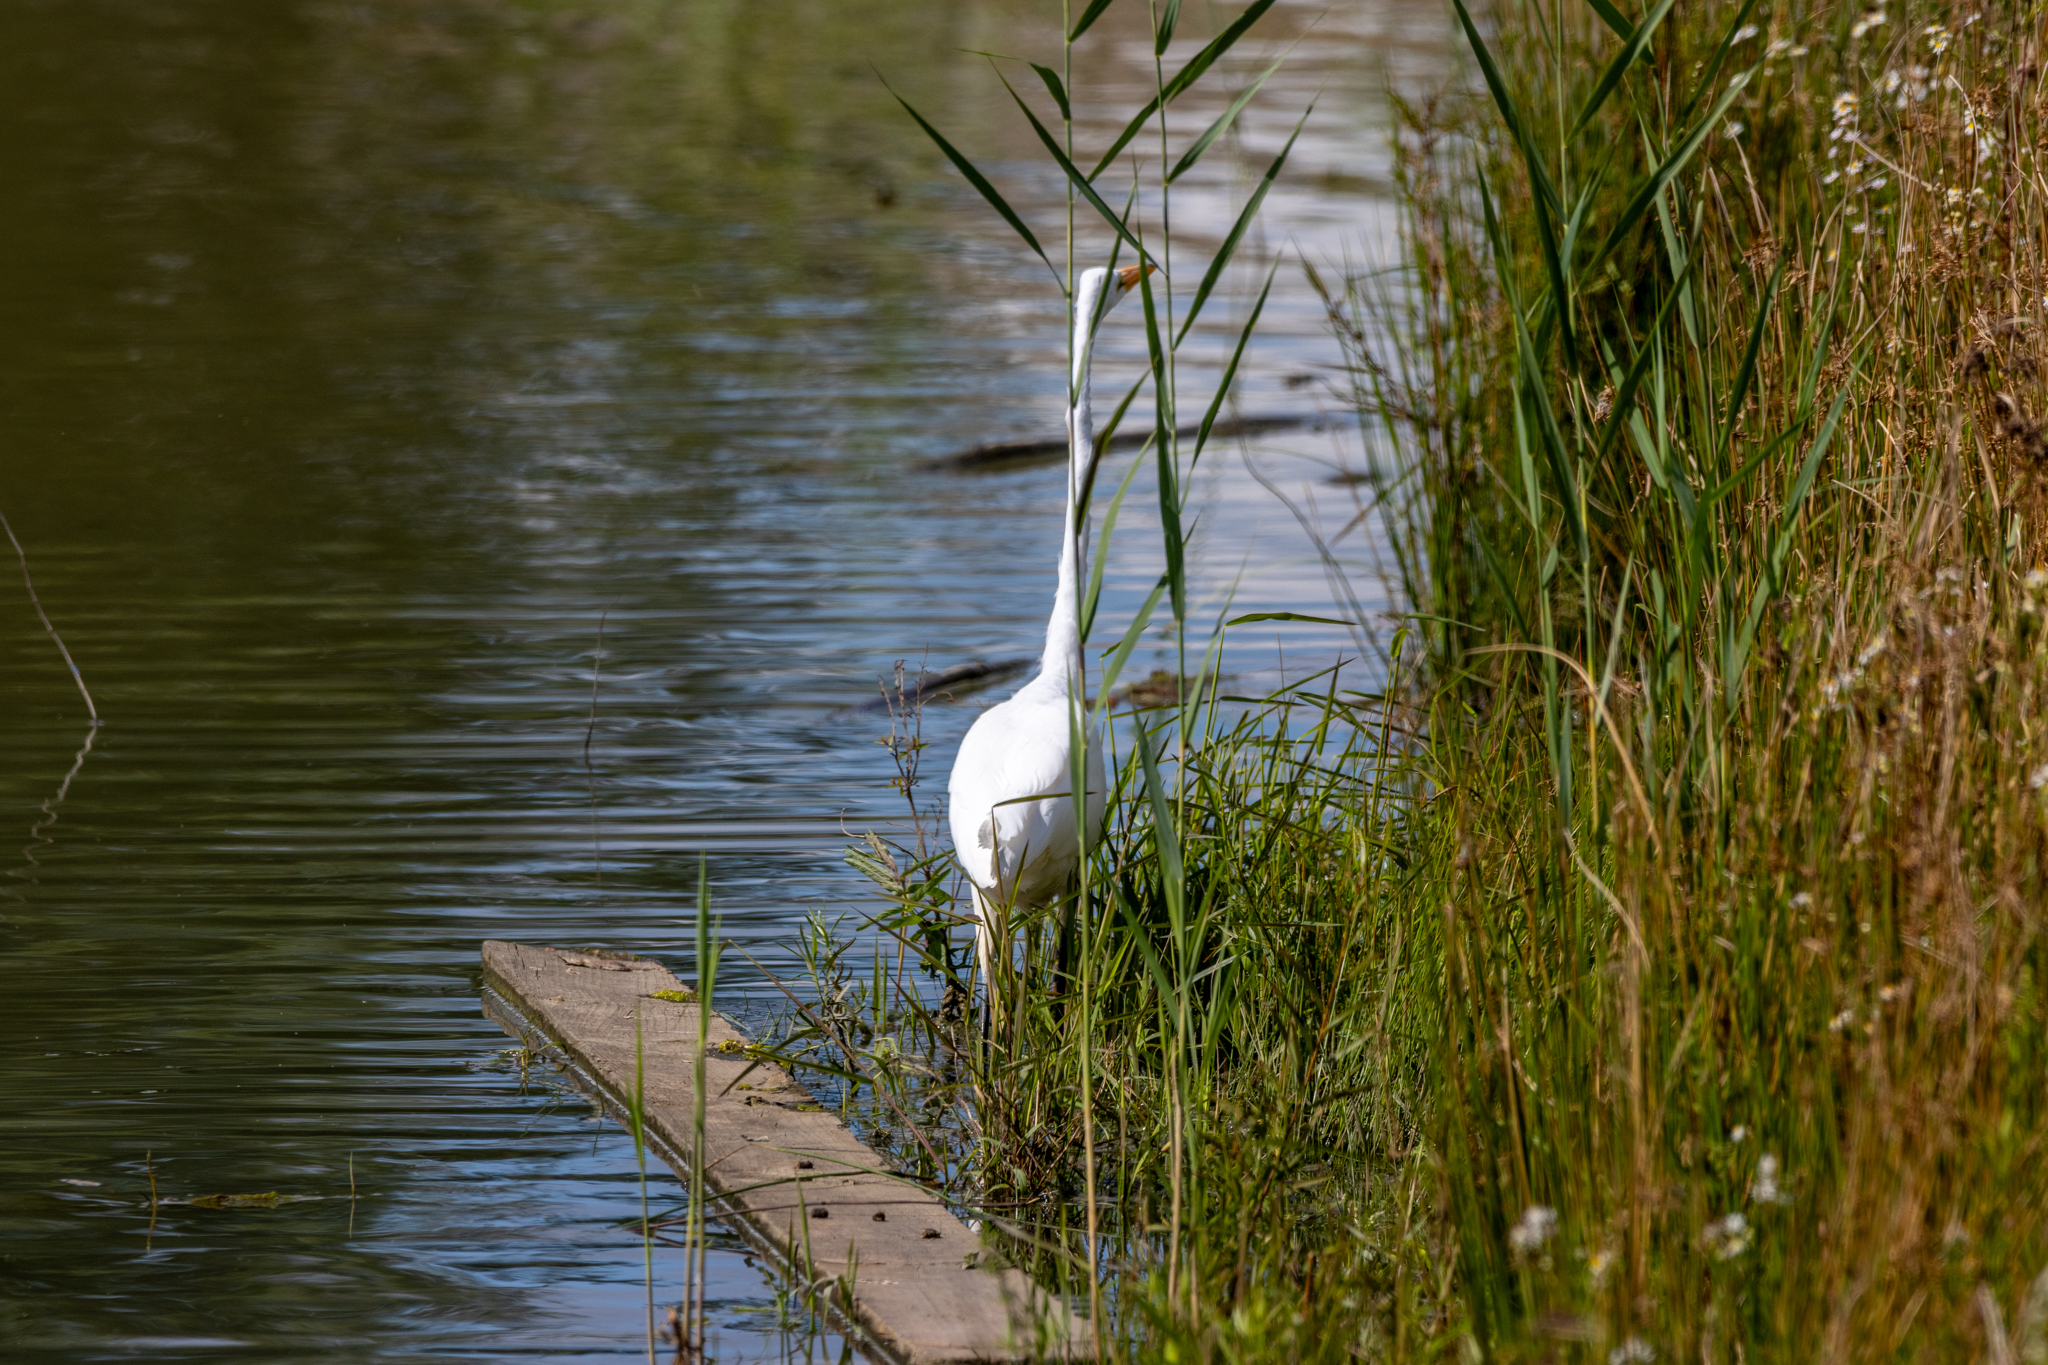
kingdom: Animalia
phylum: Chordata
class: Aves
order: Pelecaniformes
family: Ardeidae
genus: Ardea
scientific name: Ardea alba
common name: Great egret
